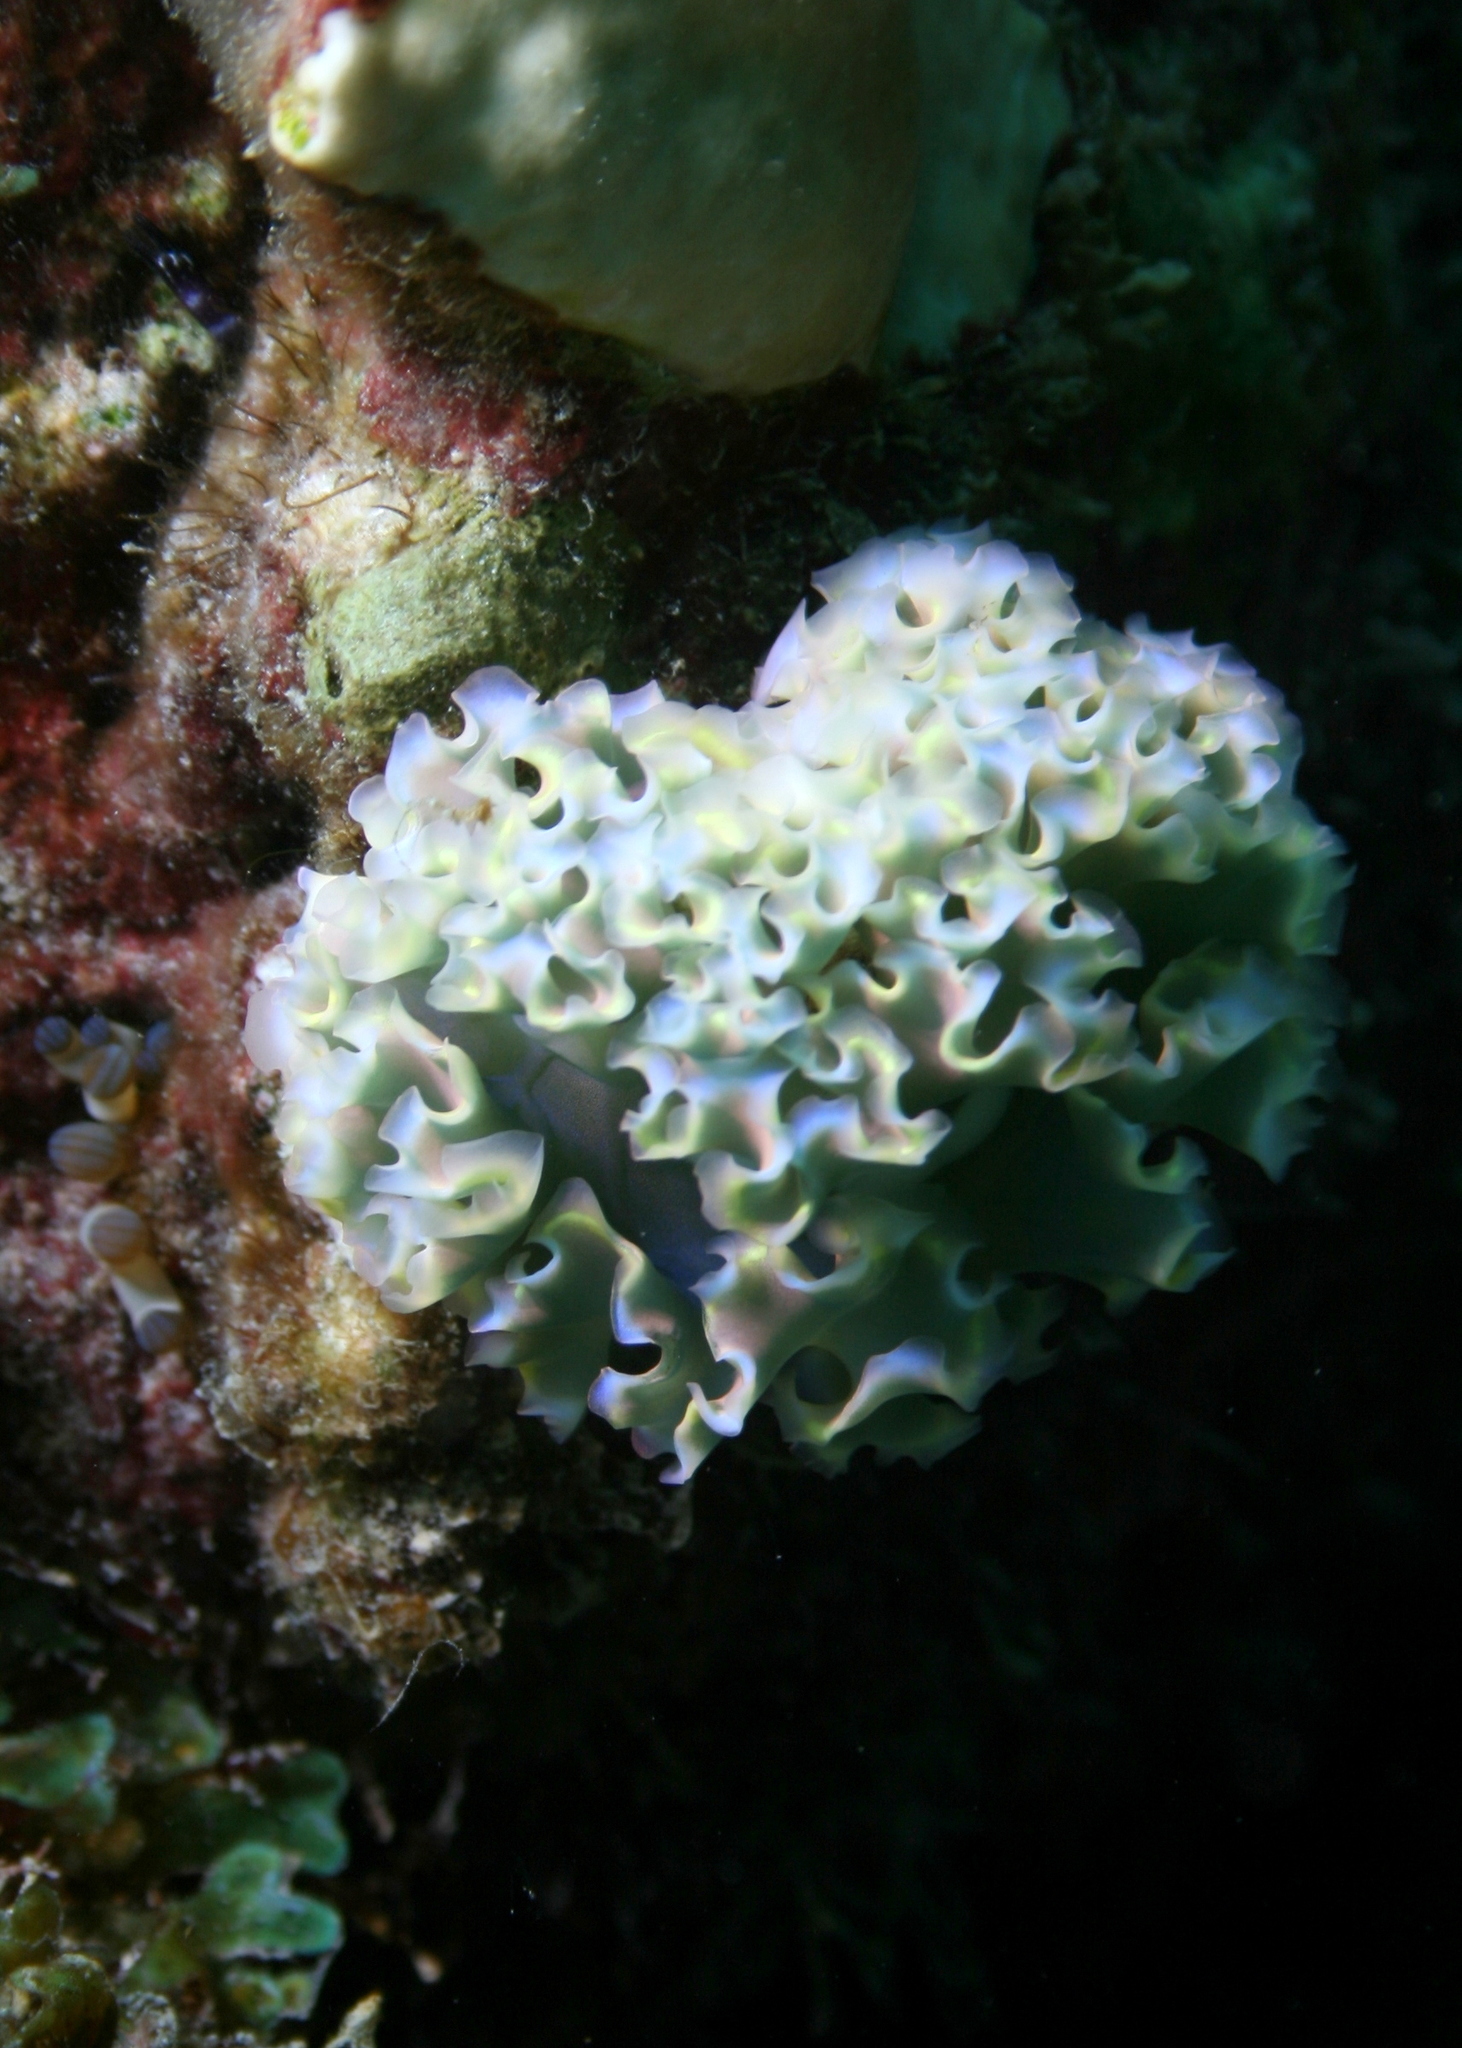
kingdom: Animalia
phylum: Mollusca
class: Gastropoda
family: Plakobranchidae
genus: Elysia
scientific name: Elysia crispata
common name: Lettuce slug
